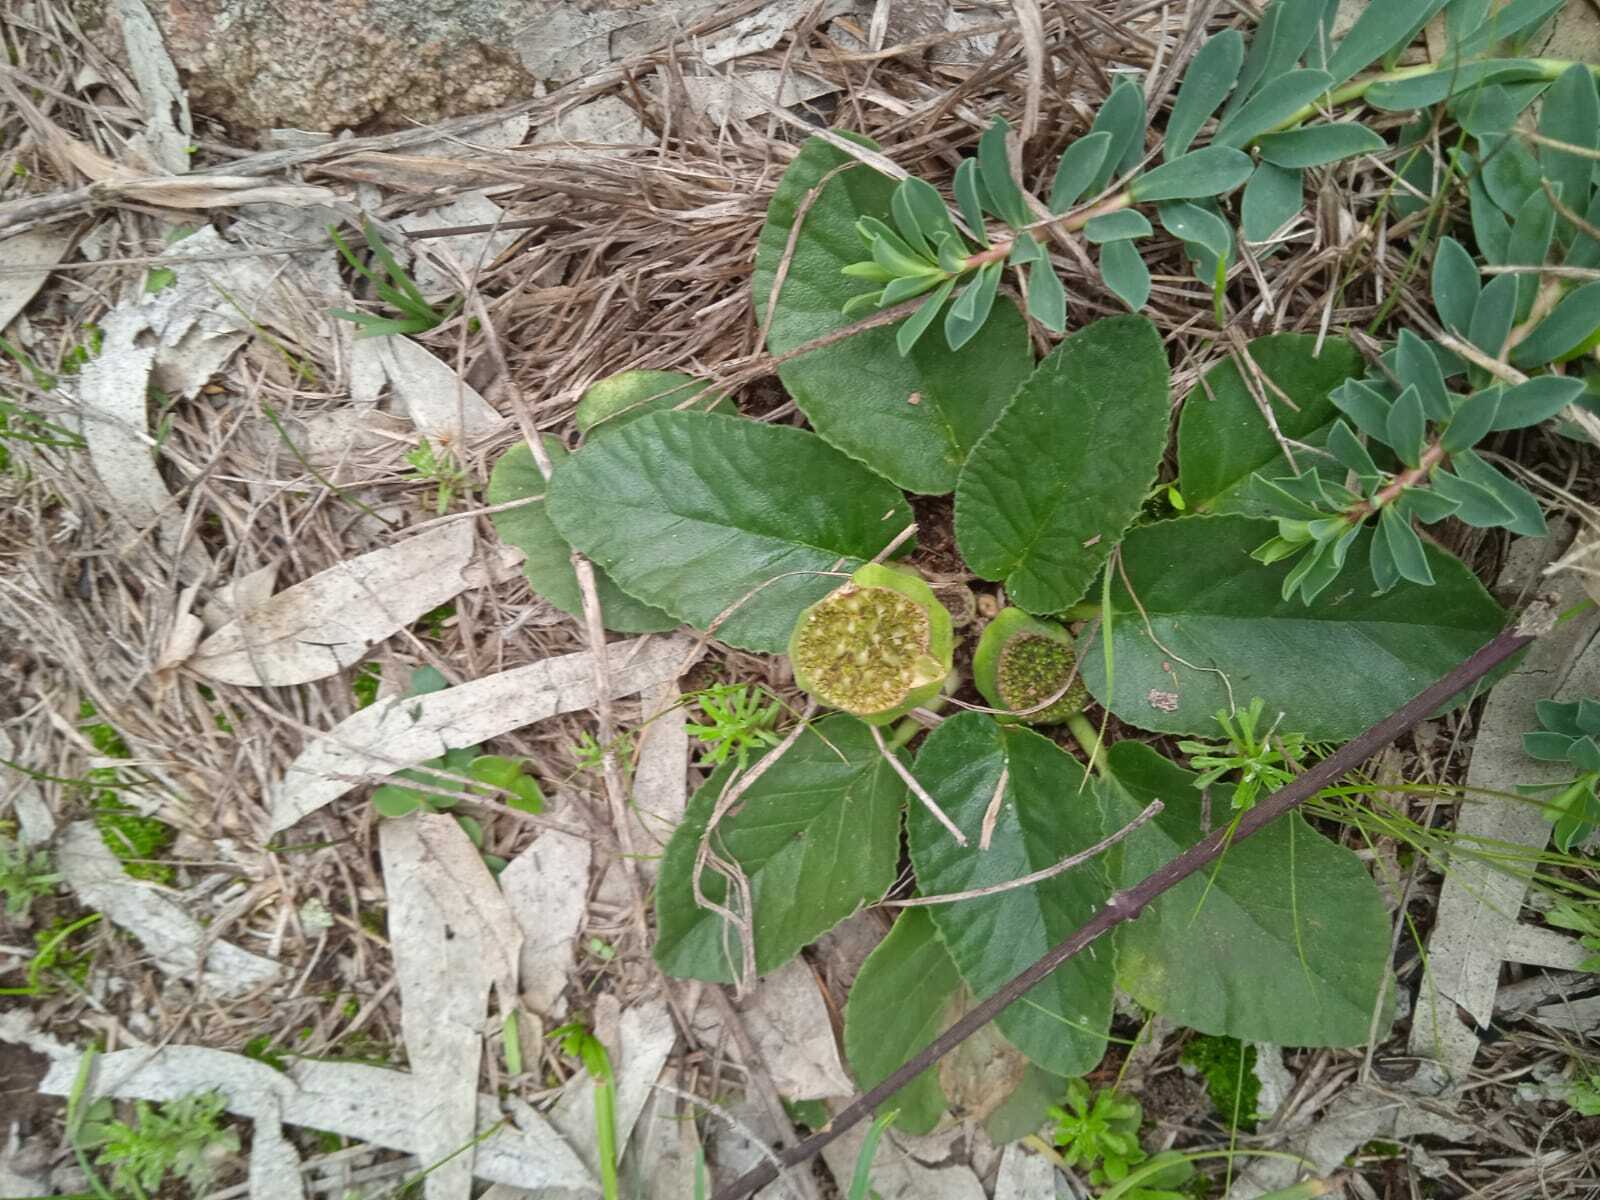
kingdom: Plantae
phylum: Tracheophyta
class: Magnoliopsida
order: Rosales
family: Moraceae
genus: Dorstenia
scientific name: Dorstenia brasiliensis
